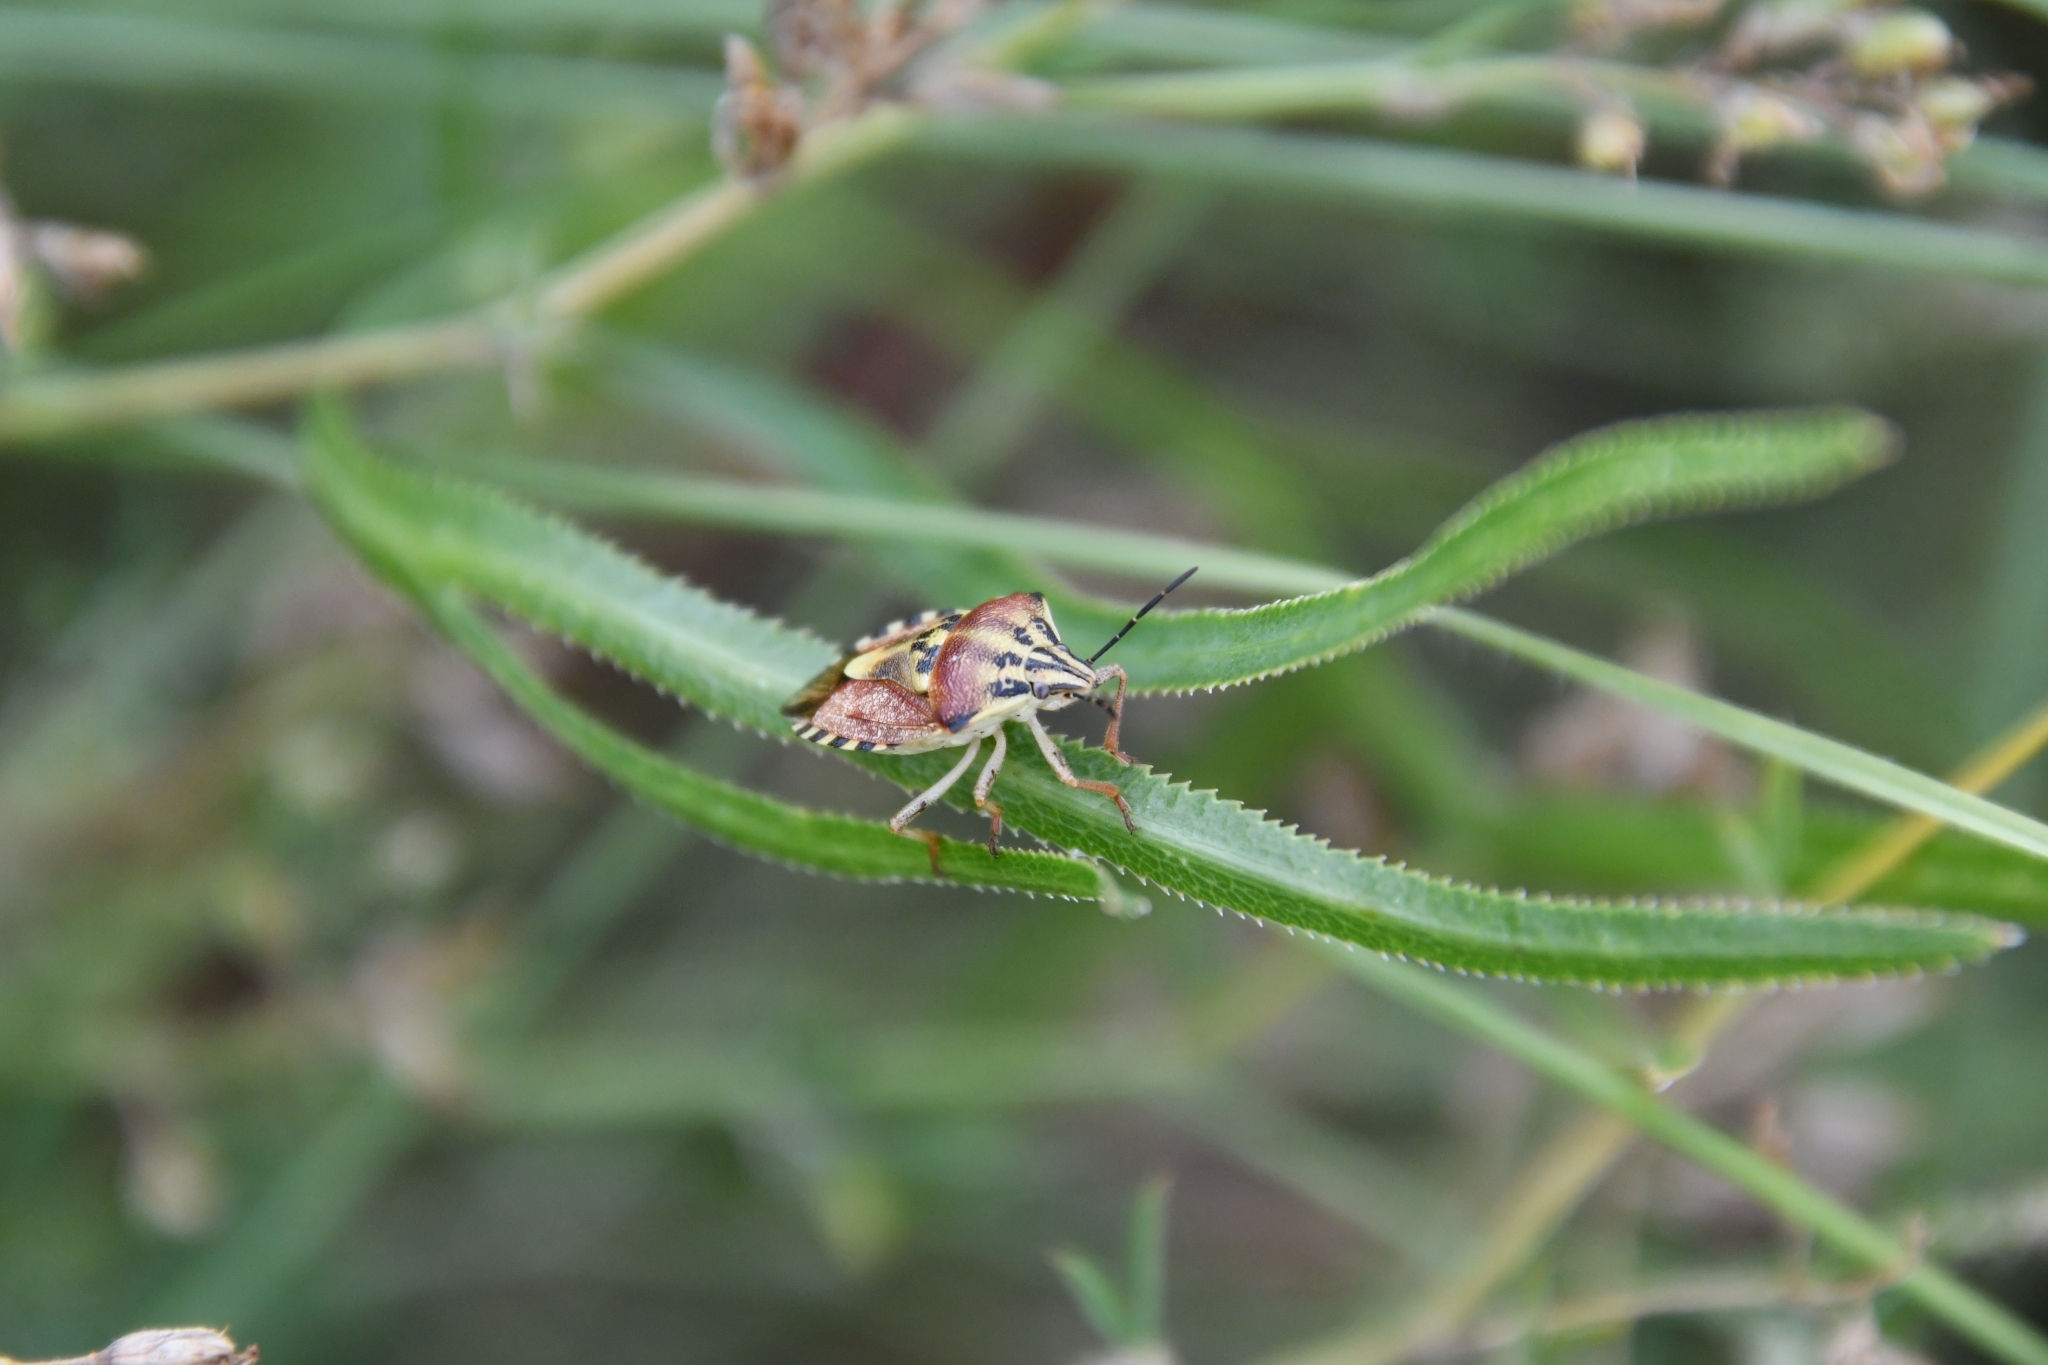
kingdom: Animalia
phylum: Arthropoda
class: Insecta
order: Hemiptera
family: Pentatomidae
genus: Carpocoris
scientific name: Carpocoris purpureipennis
